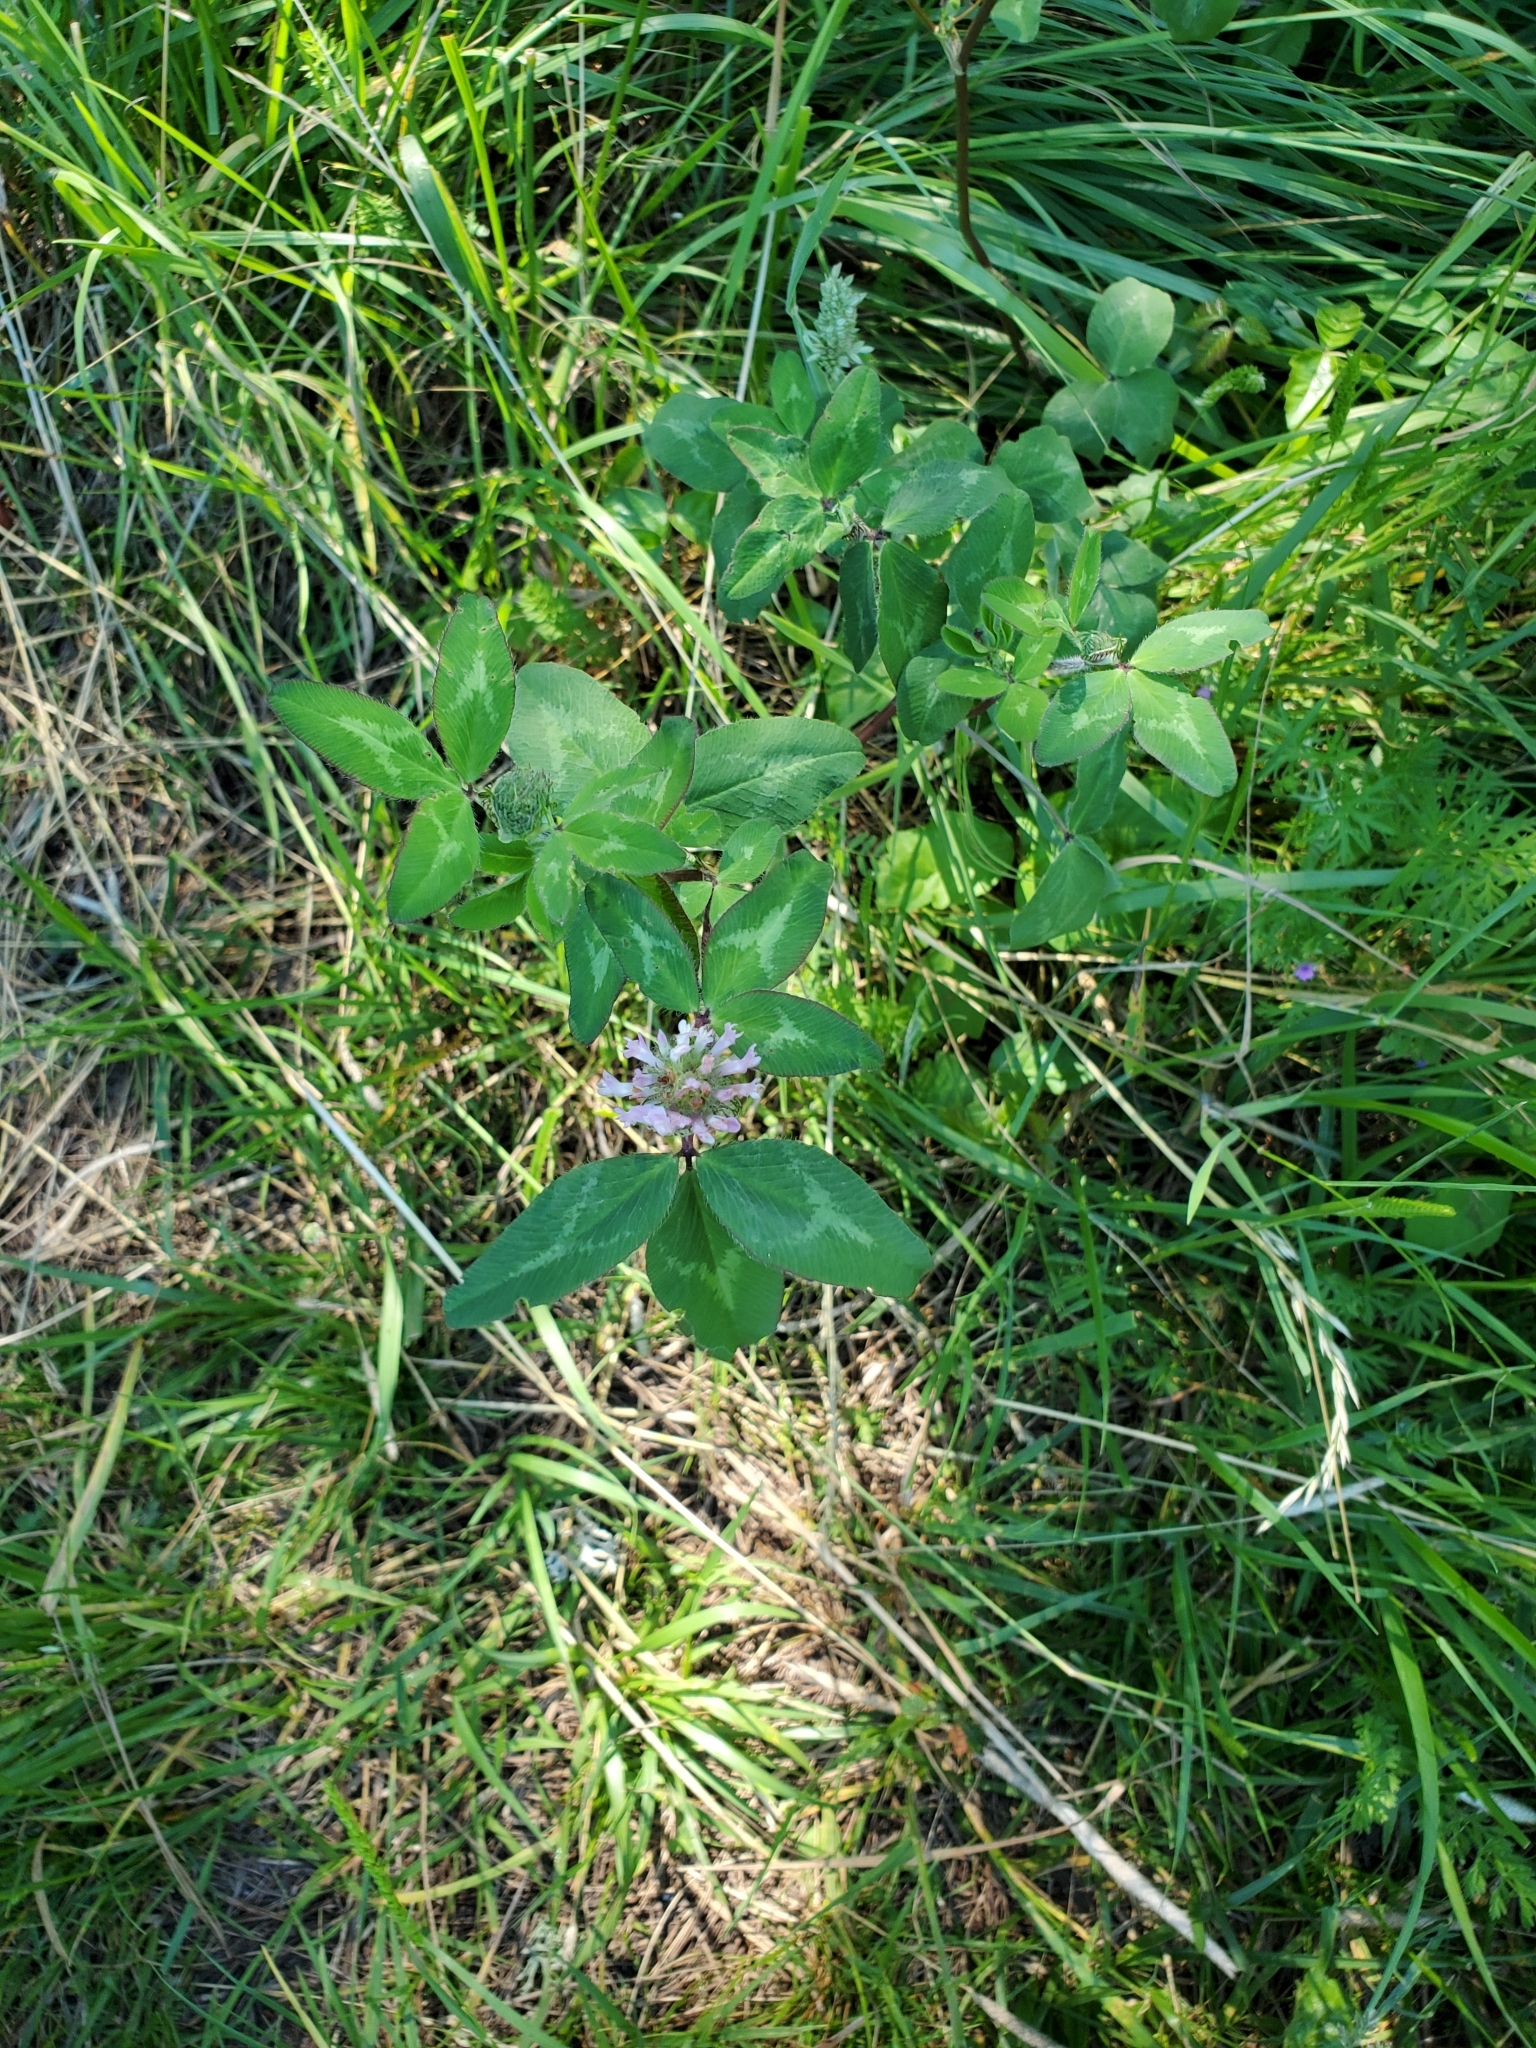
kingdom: Plantae
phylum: Tracheophyta
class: Magnoliopsida
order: Fabales
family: Fabaceae
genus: Trifolium
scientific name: Trifolium pratense
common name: Red clover
